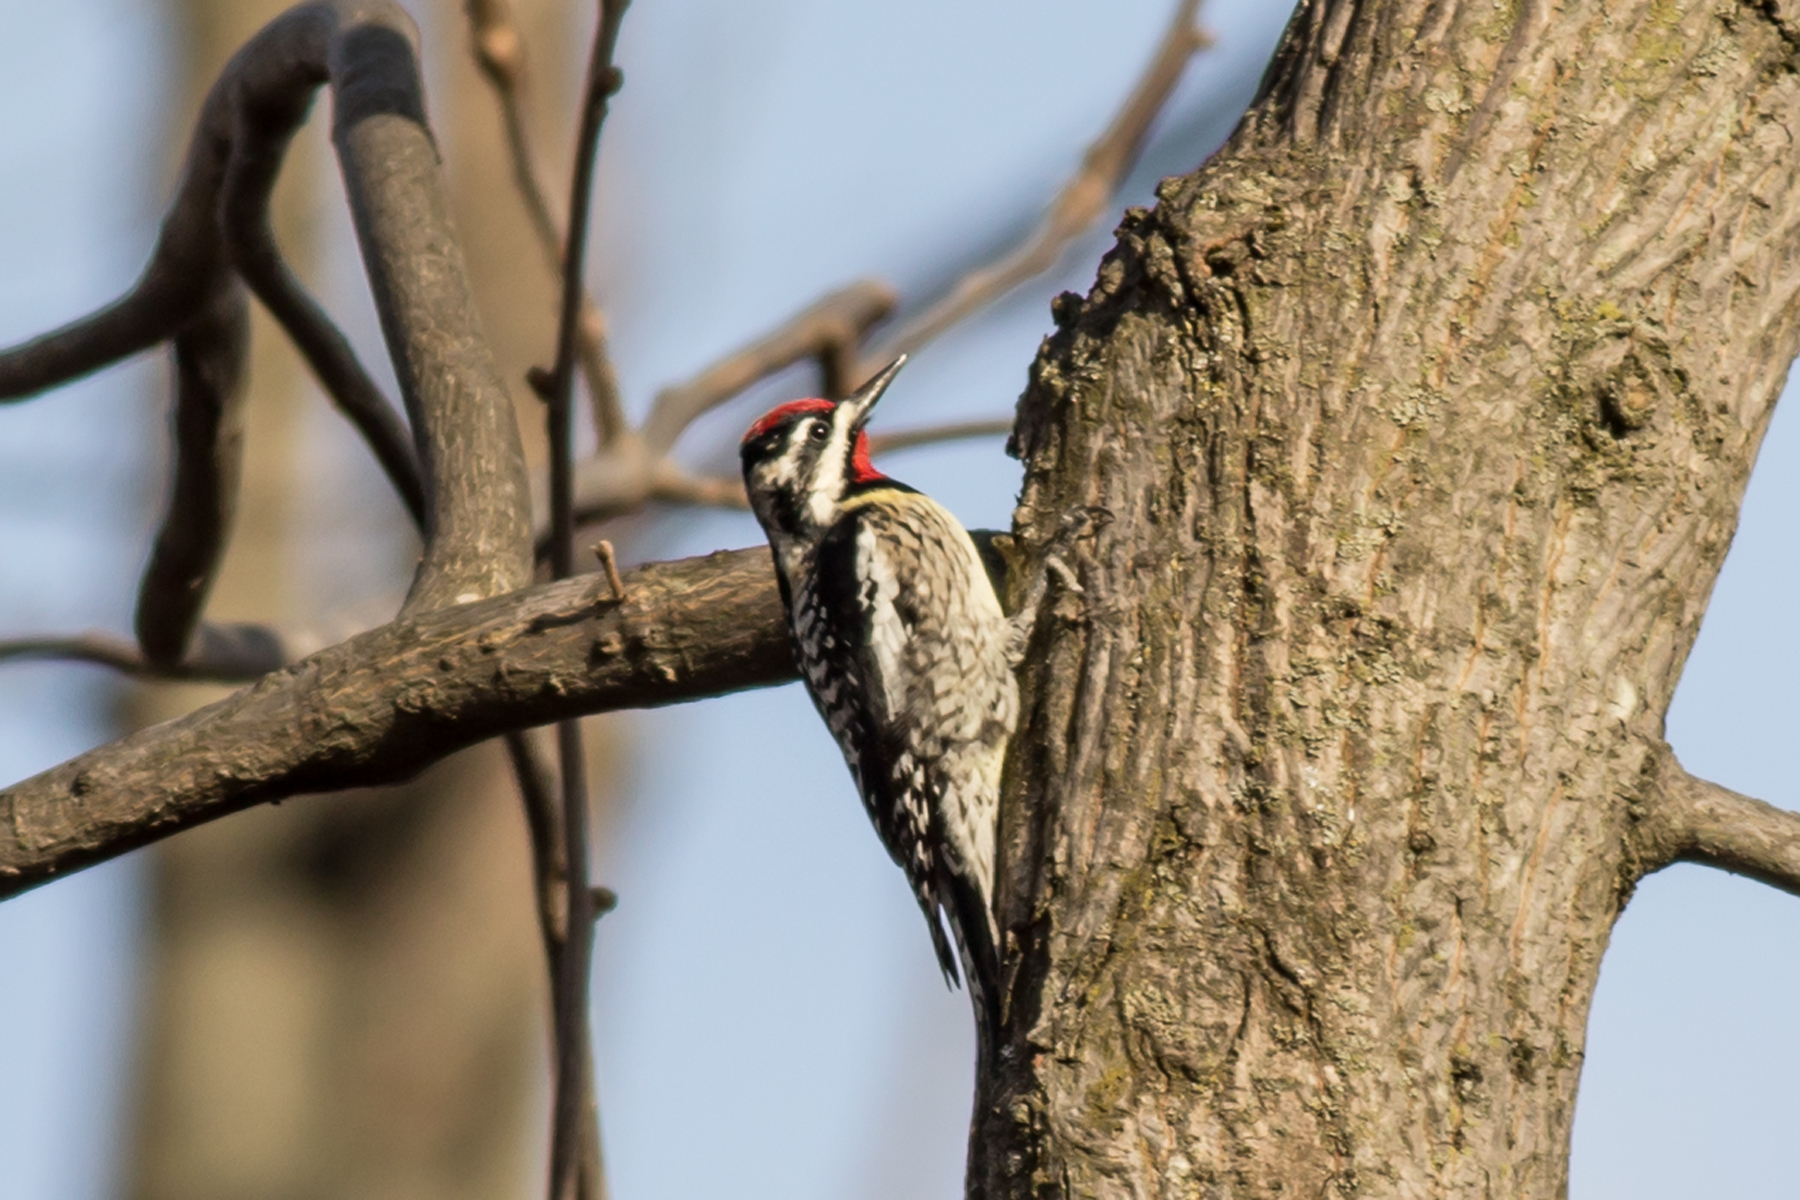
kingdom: Animalia
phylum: Chordata
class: Aves
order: Piciformes
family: Picidae
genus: Sphyrapicus
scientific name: Sphyrapicus varius
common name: Yellow-bellied sapsucker
